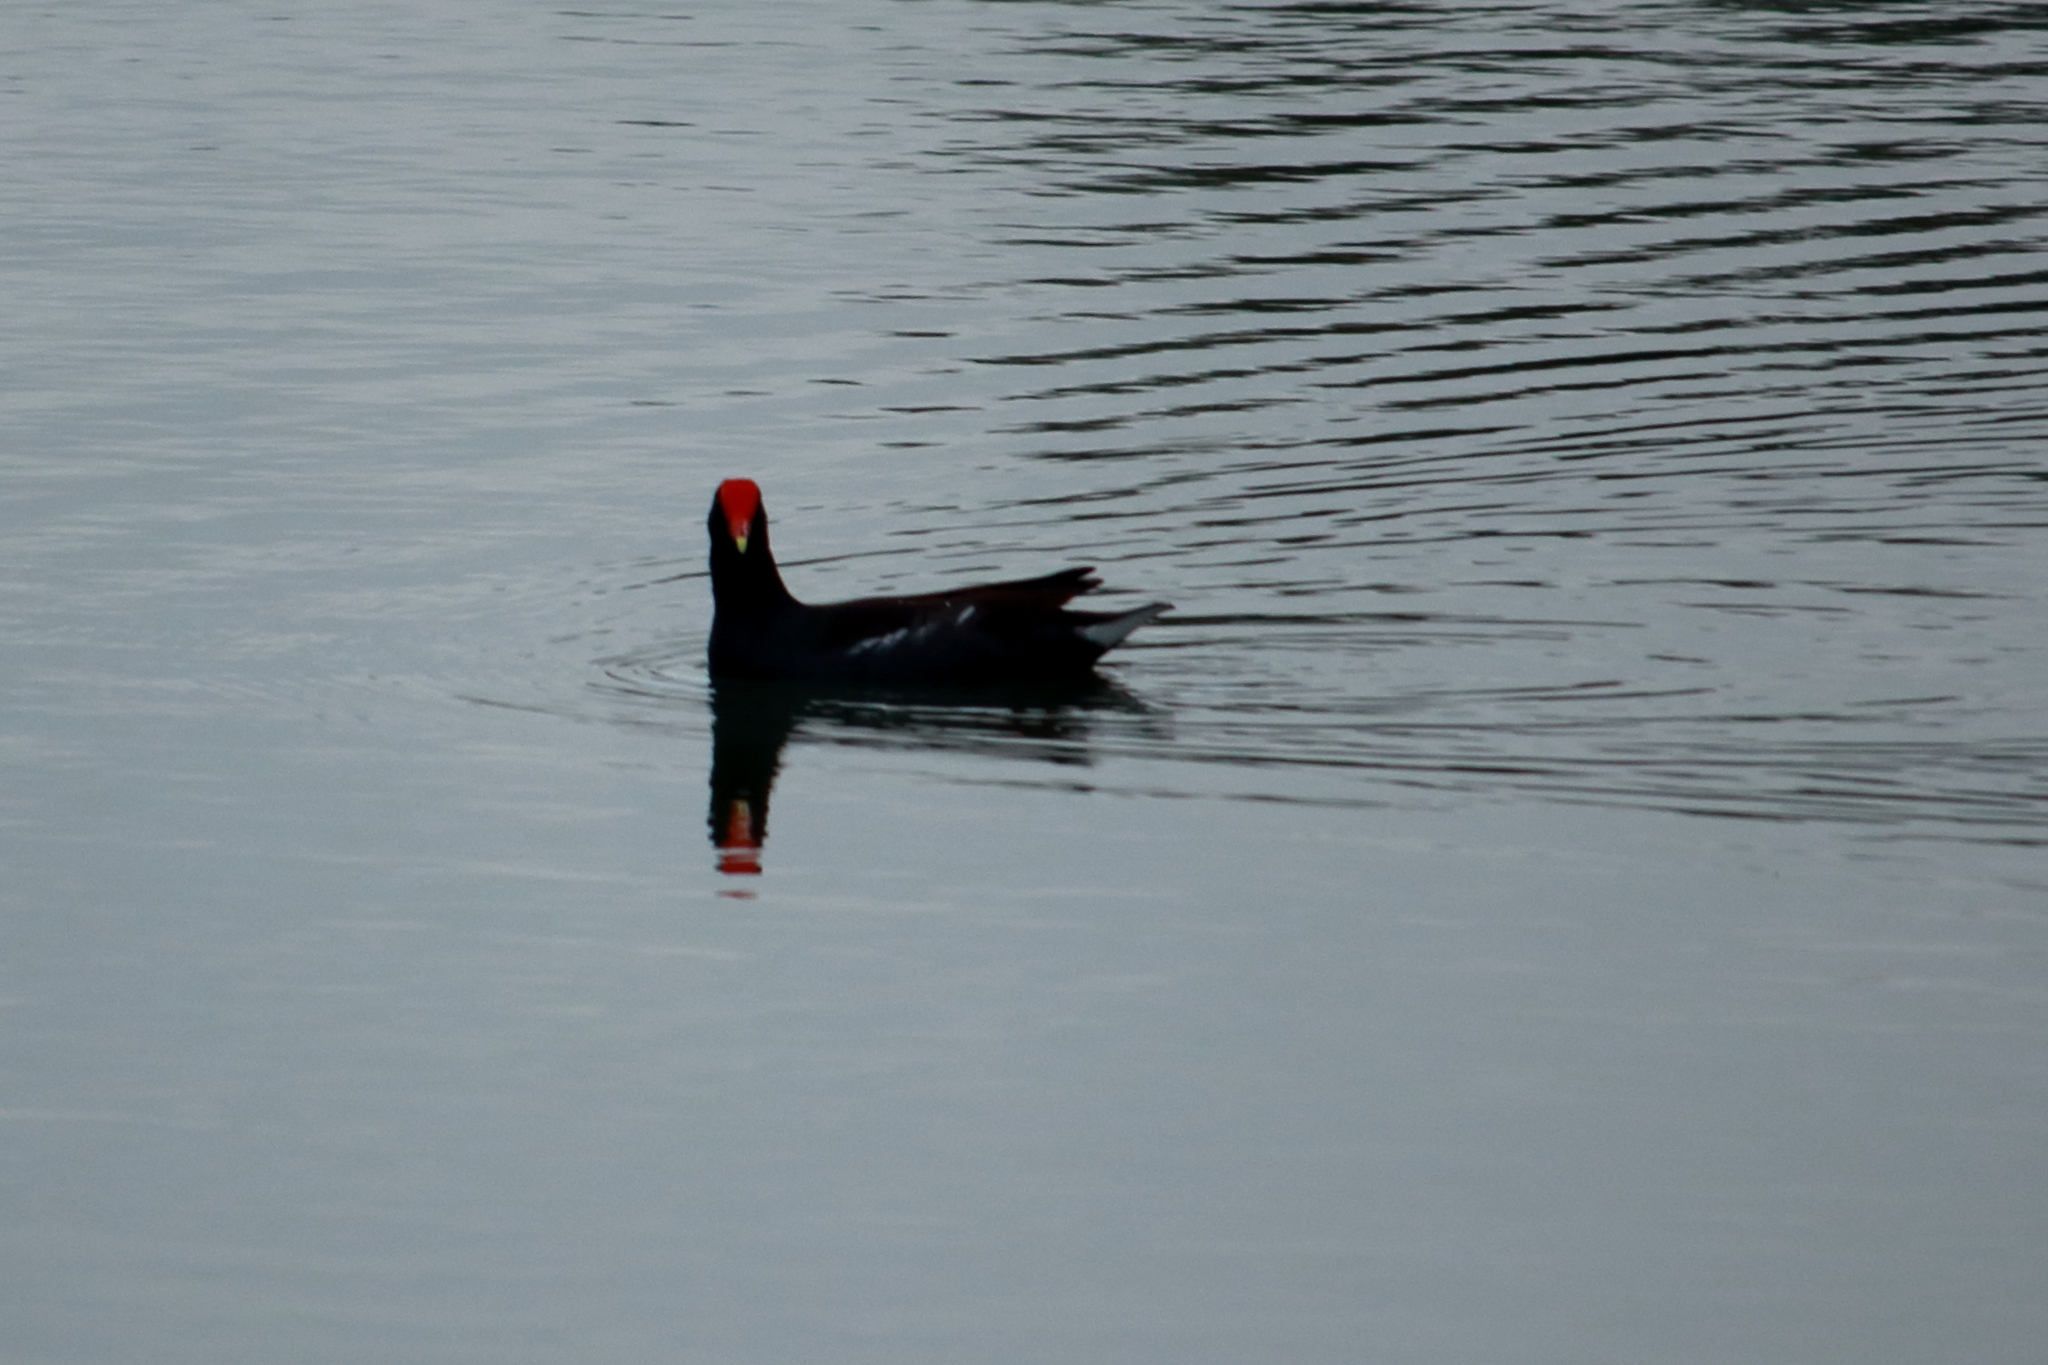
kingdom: Animalia
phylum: Chordata
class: Aves
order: Gruiformes
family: Rallidae
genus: Gallinula
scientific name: Gallinula chloropus
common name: Common moorhen
